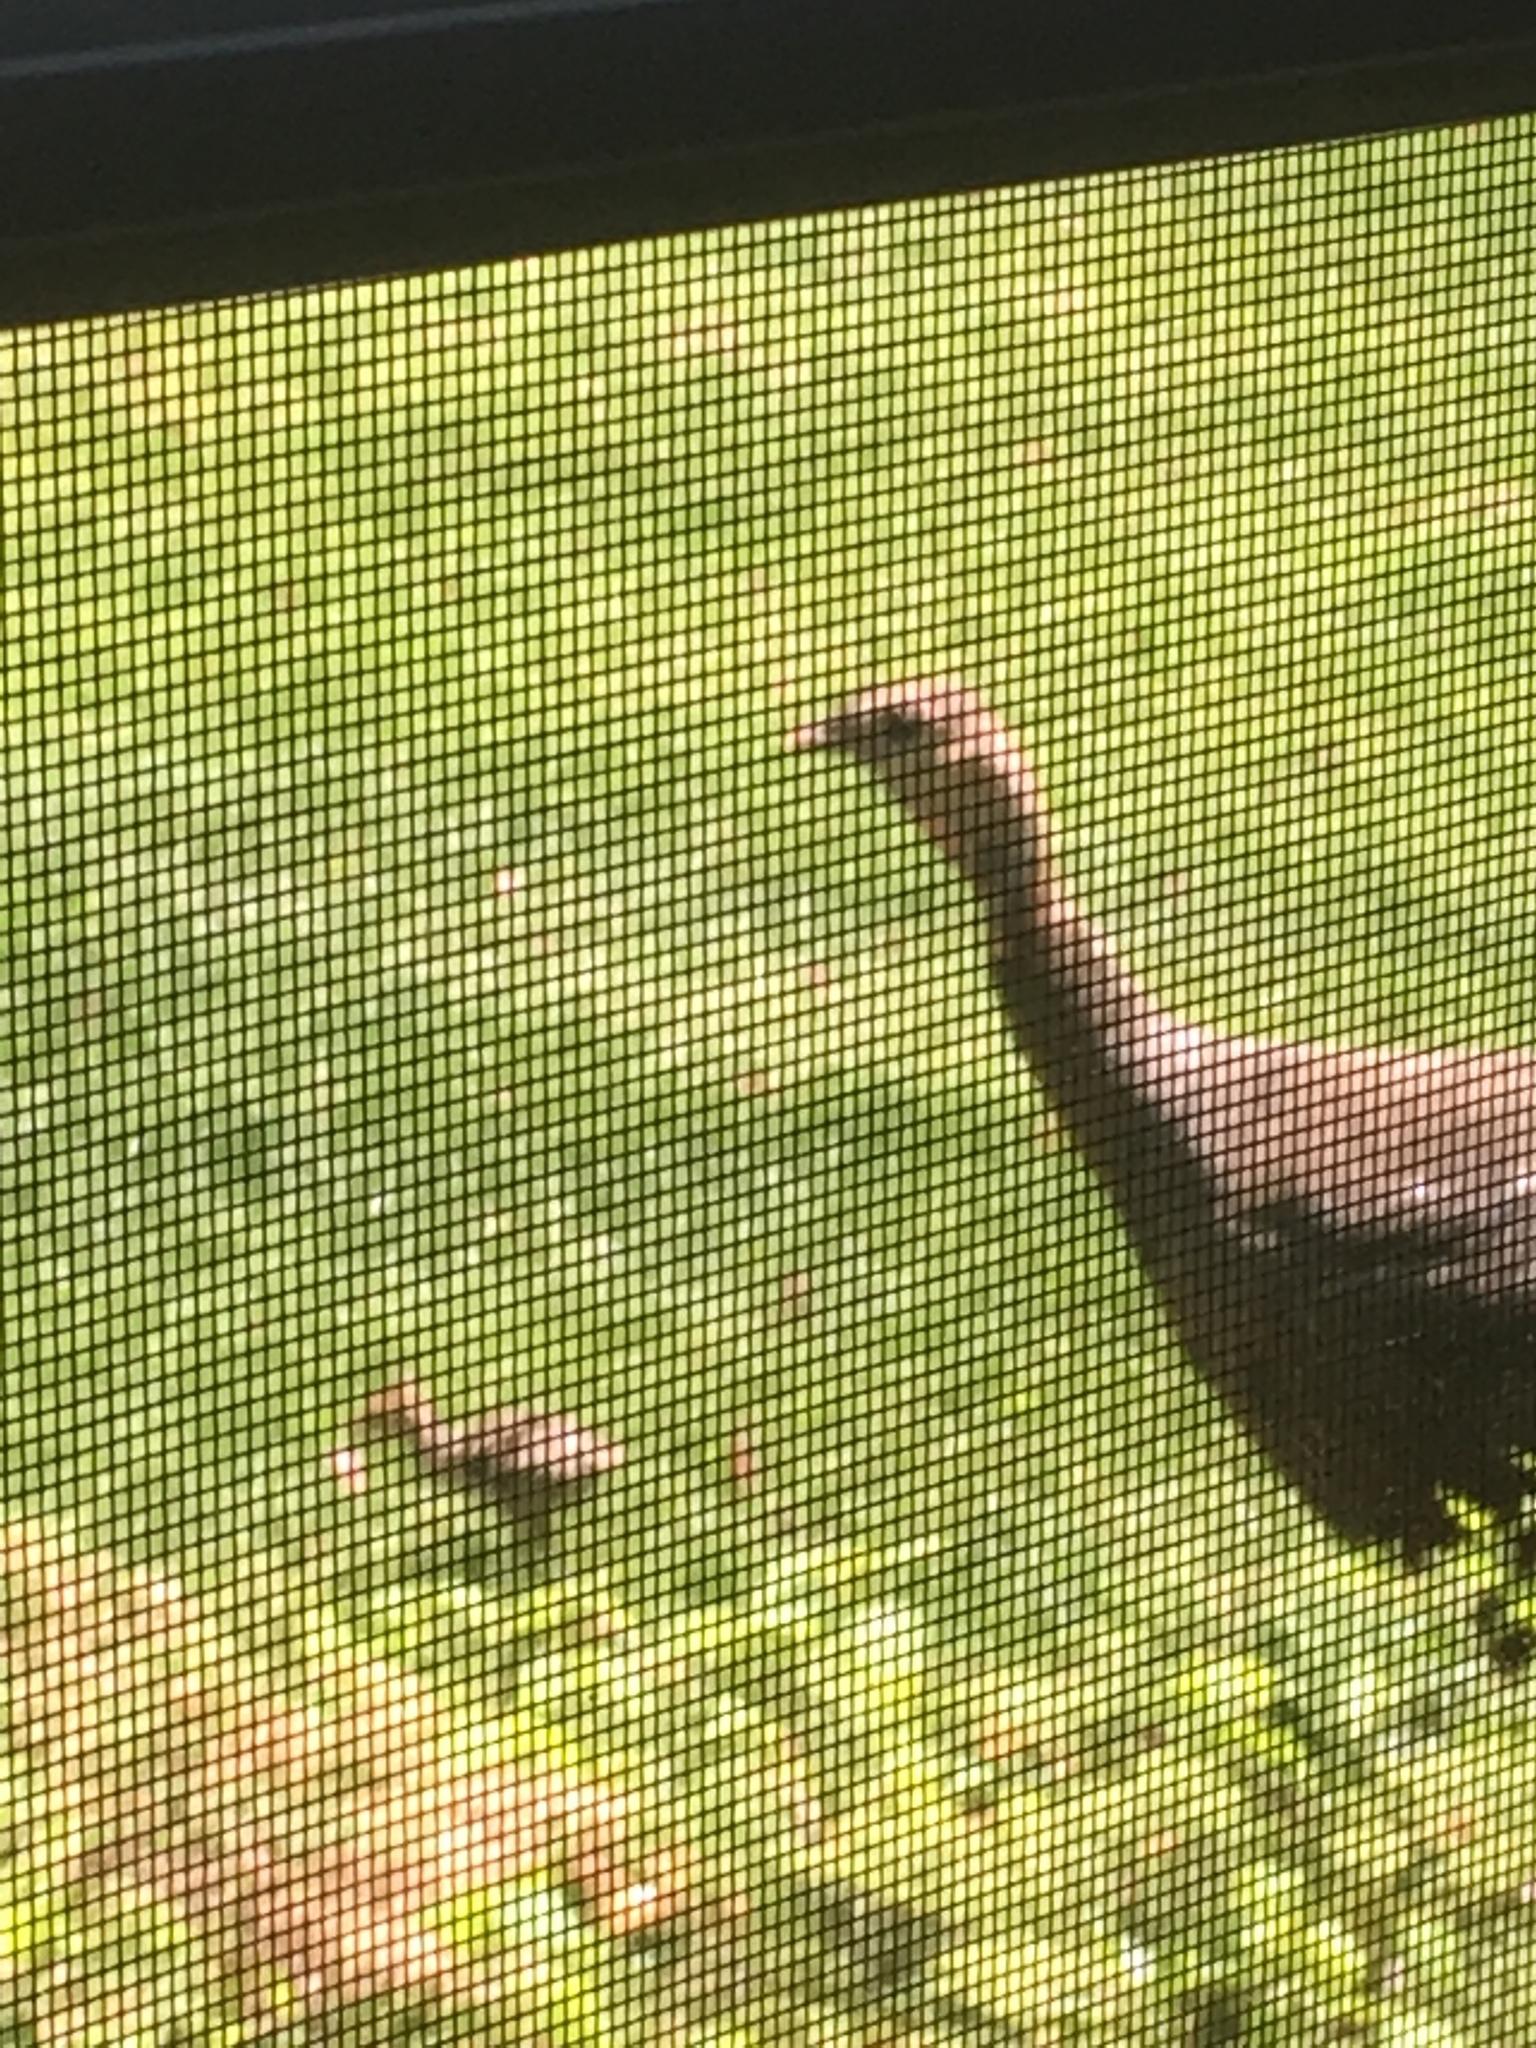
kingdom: Animalia
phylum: Chordata
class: Aves
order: Galliformes
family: Phasianidae
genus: Meleagris
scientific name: Meleagris gallopavo
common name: Wild turkey
